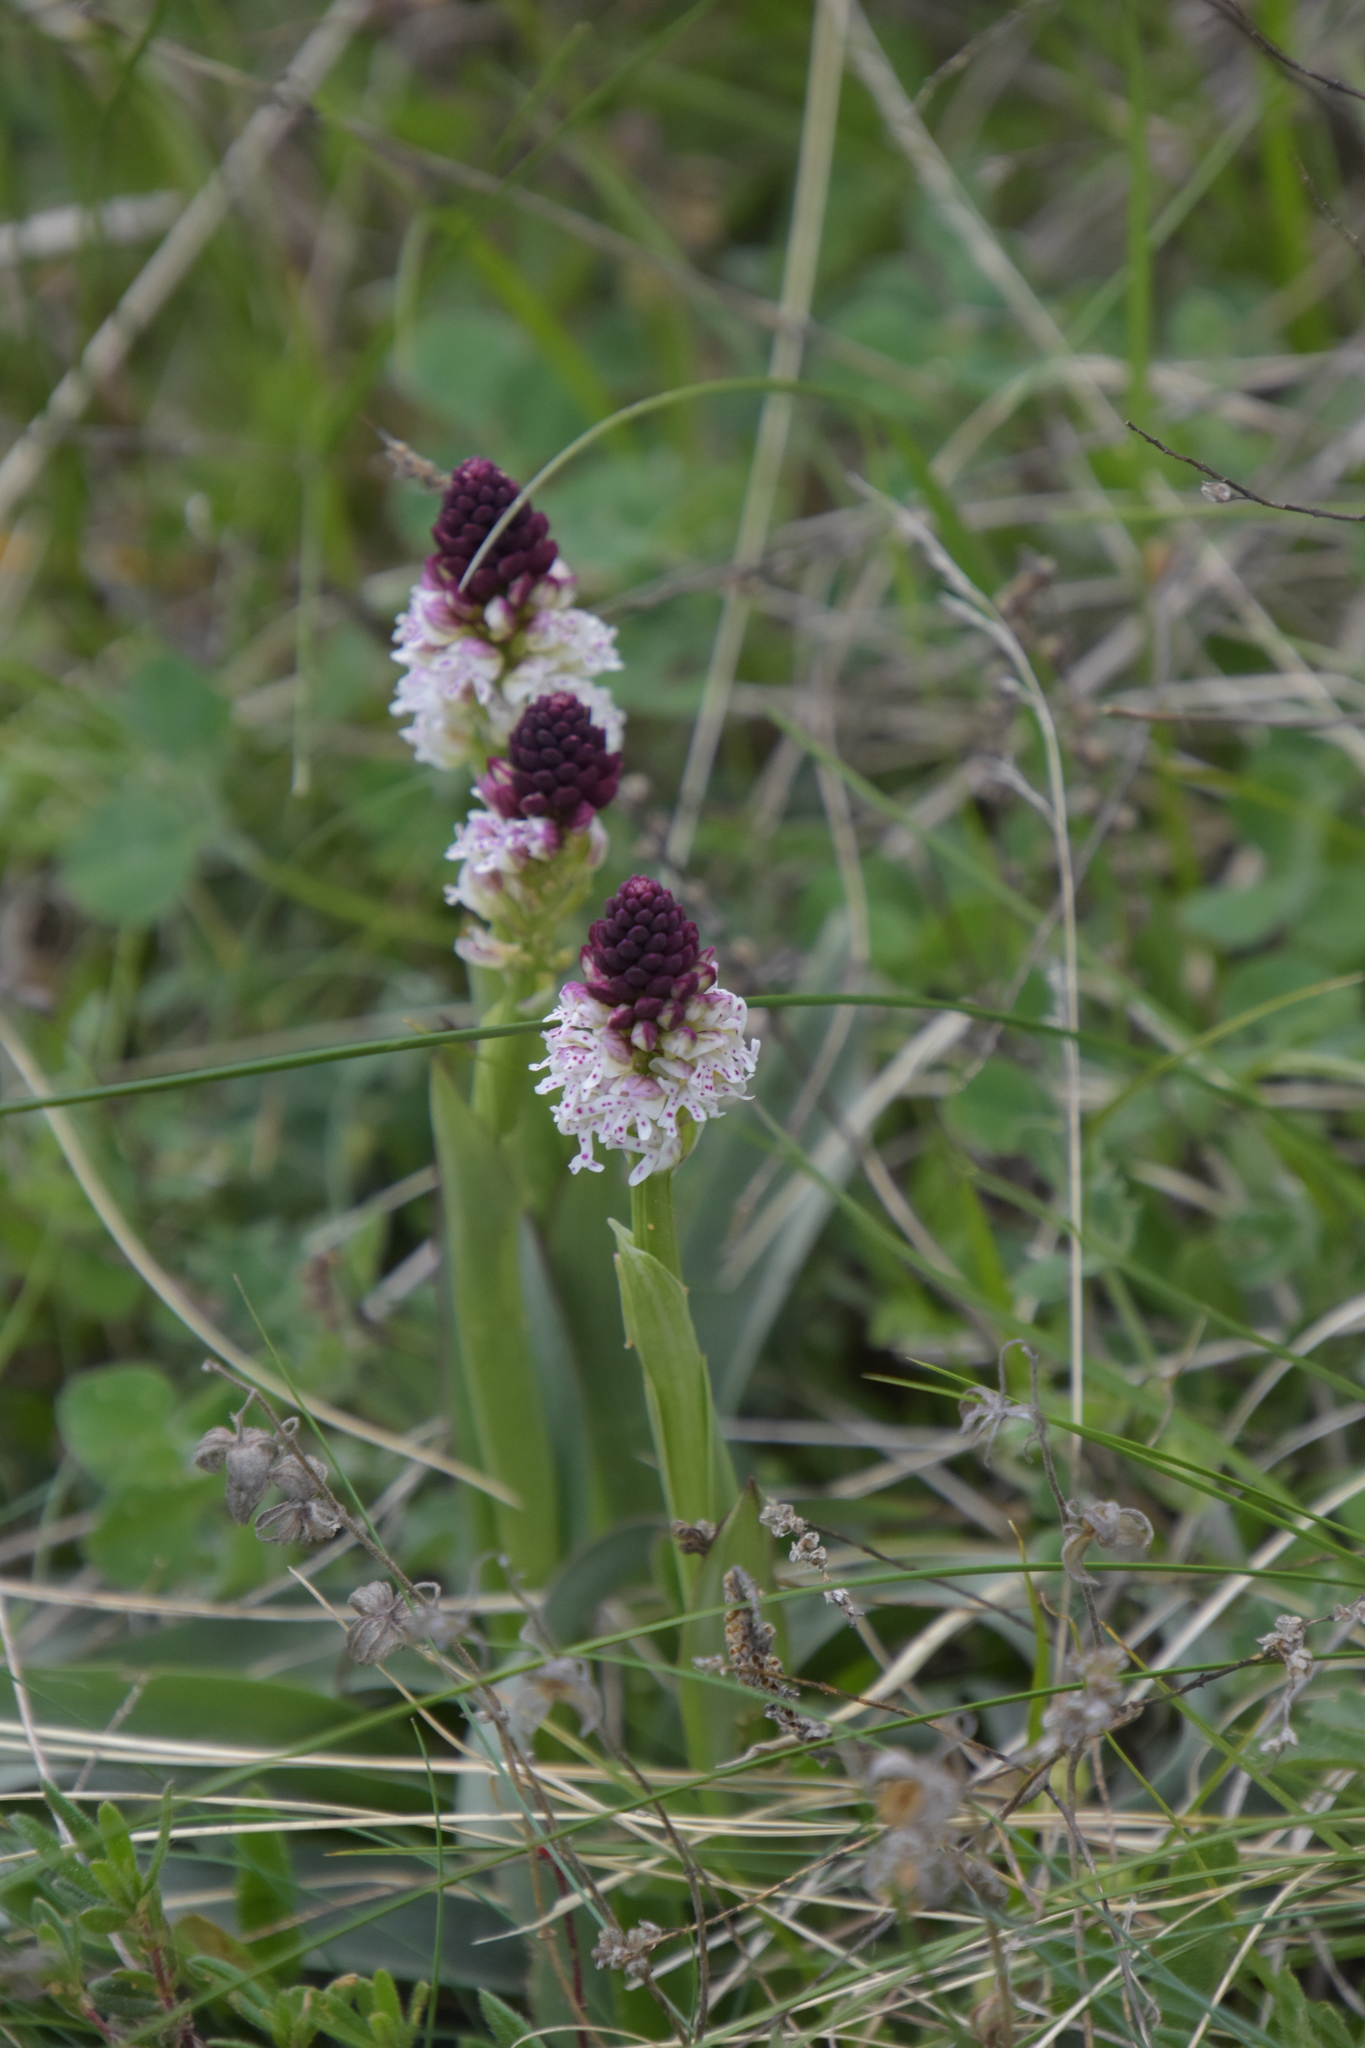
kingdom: Plantae
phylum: Tracheophyta
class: Liliopsida
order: Asparagales
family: Orchidaceae
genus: Neotinea
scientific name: Neotinea ustulata
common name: Burnt orchid
